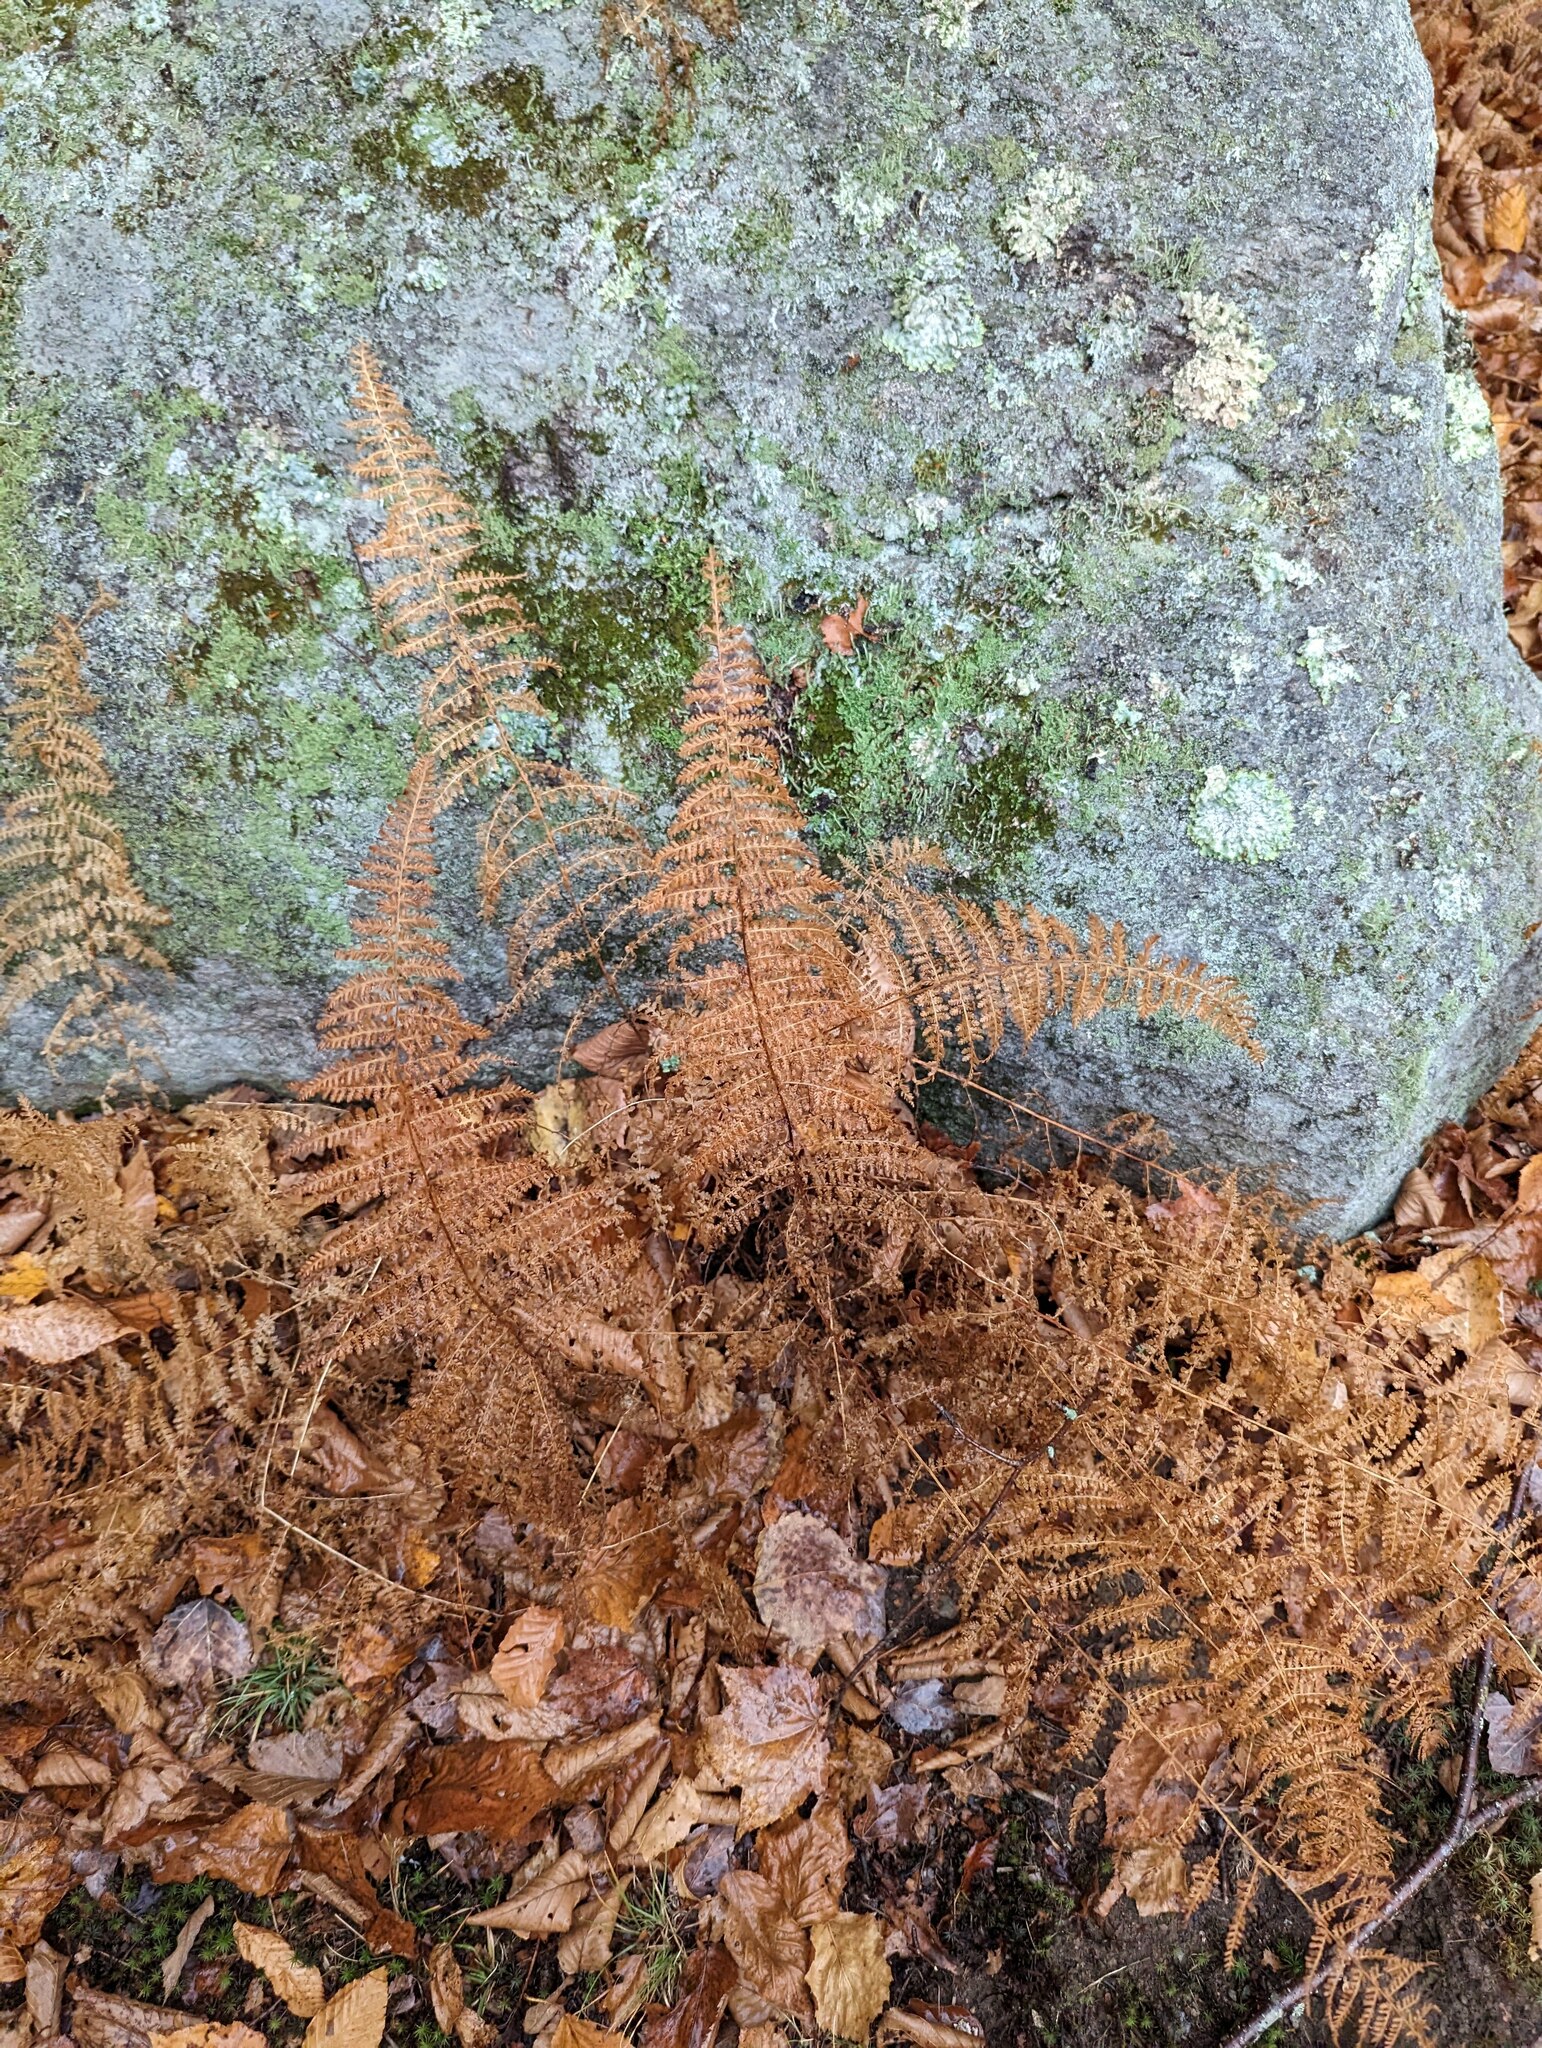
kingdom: Plantae
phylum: Tracheophyta
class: Polypodiopsida
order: Polypodiales
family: Dennstaedtiaceae
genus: Sitobolium
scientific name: Sitobolium punctilobum
